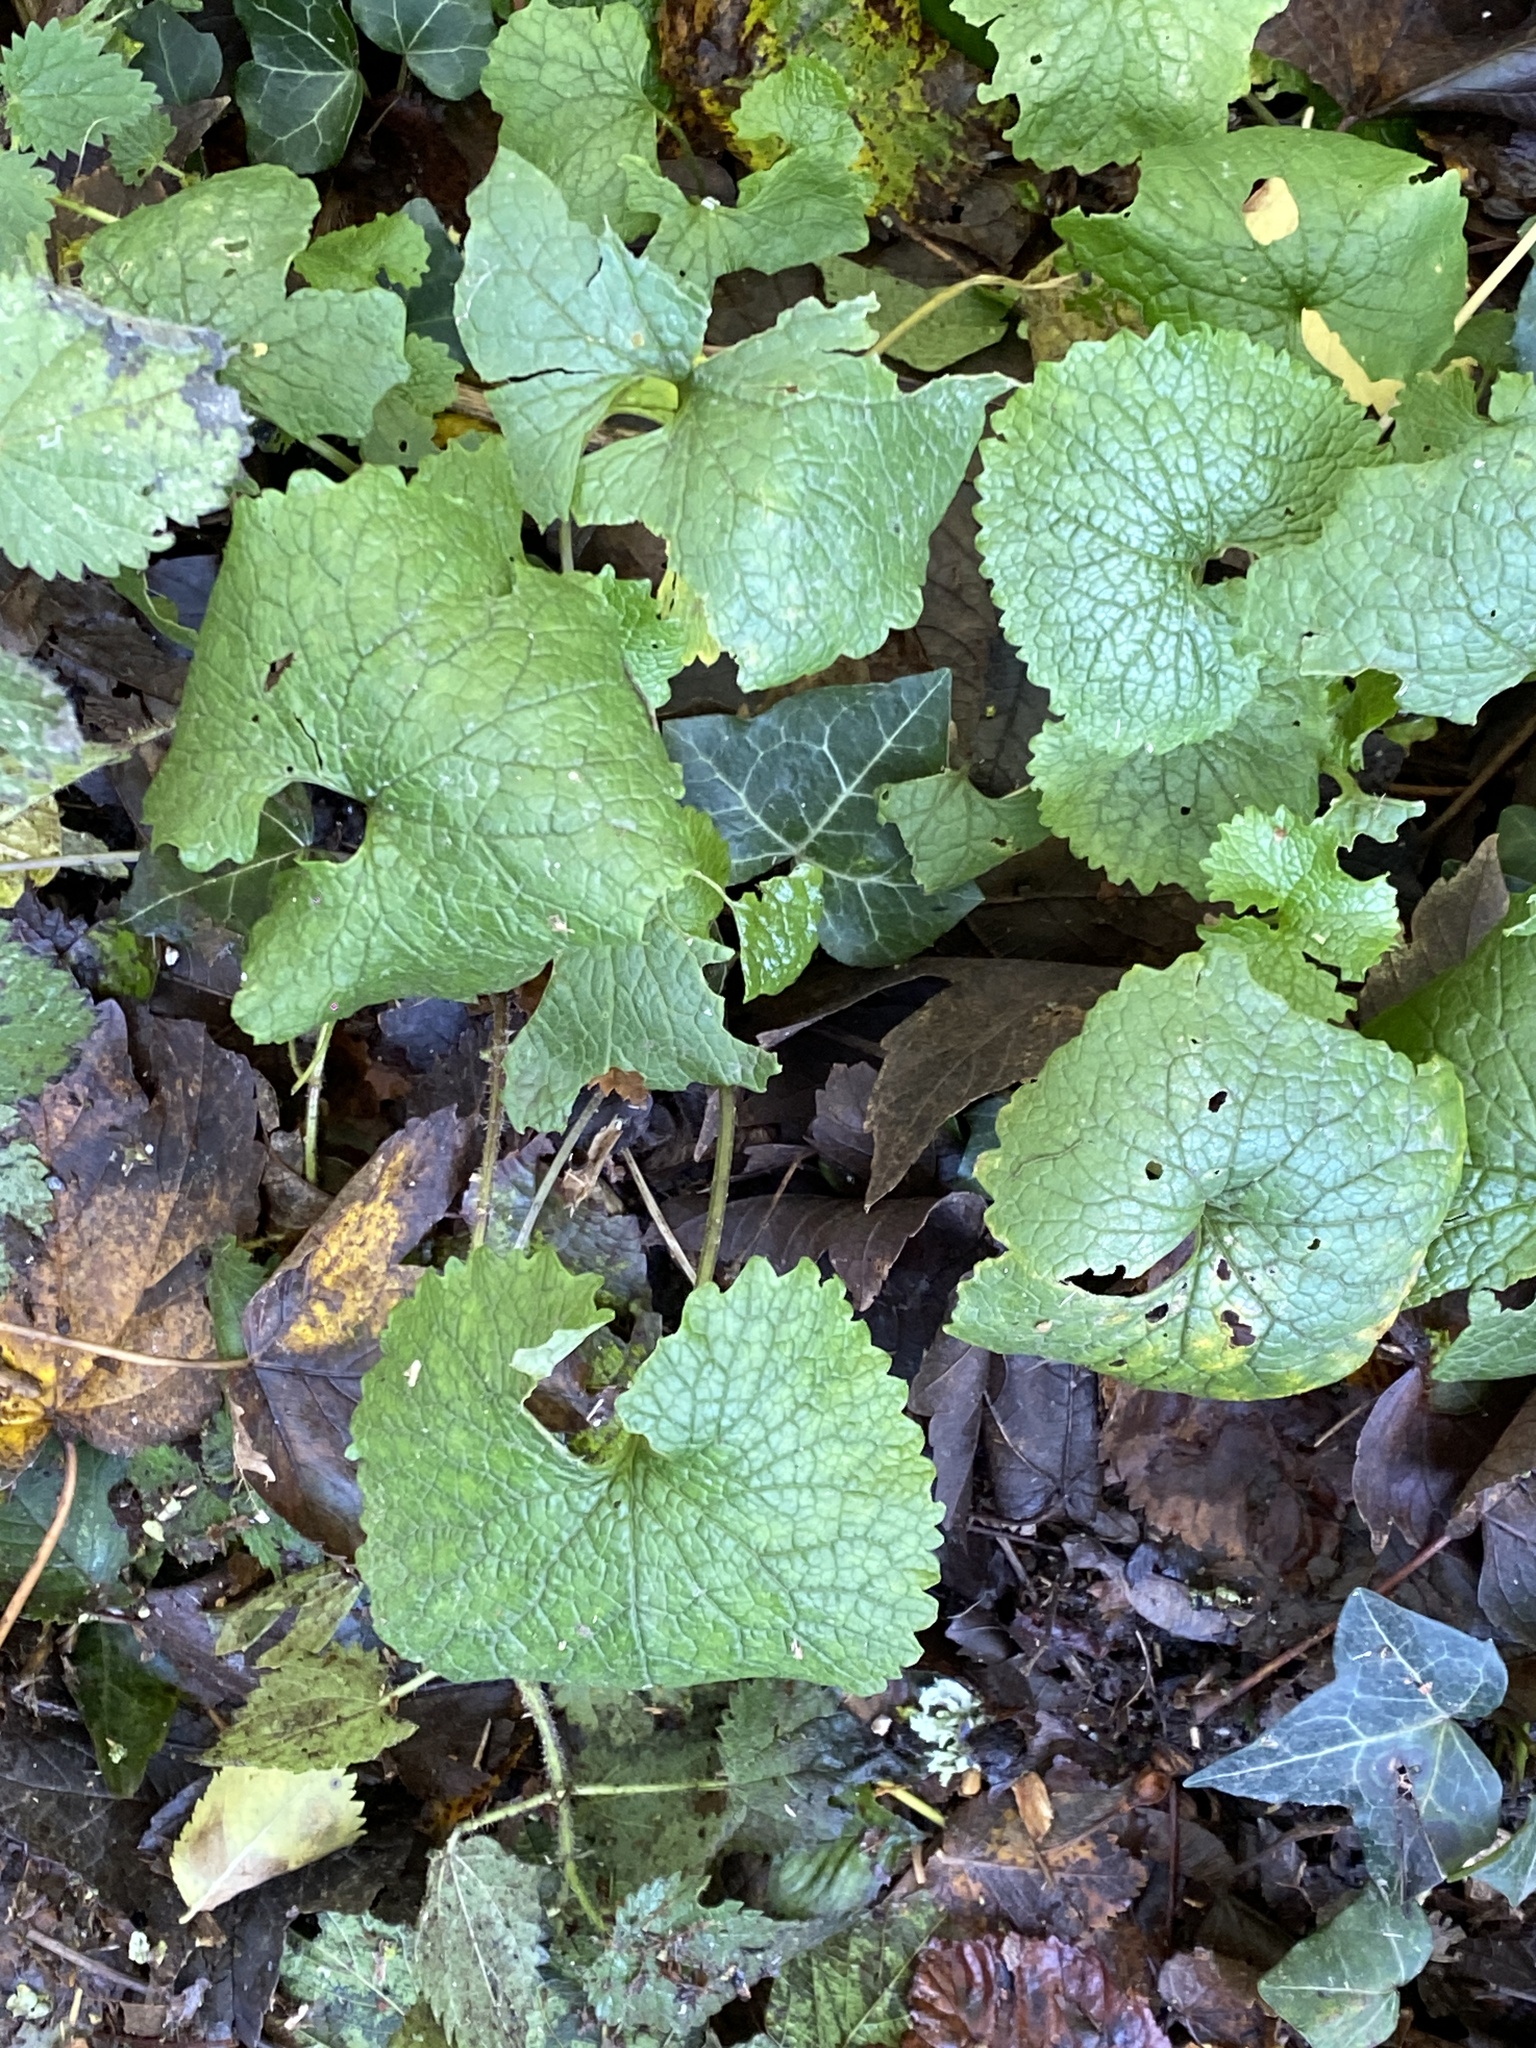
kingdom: Plantae
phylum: Tracheophyta
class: Magnoliopsida
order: Brassicales
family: Brassicaceae
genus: Alliaria
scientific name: Alliaria petiolata
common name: Garlic mustard
